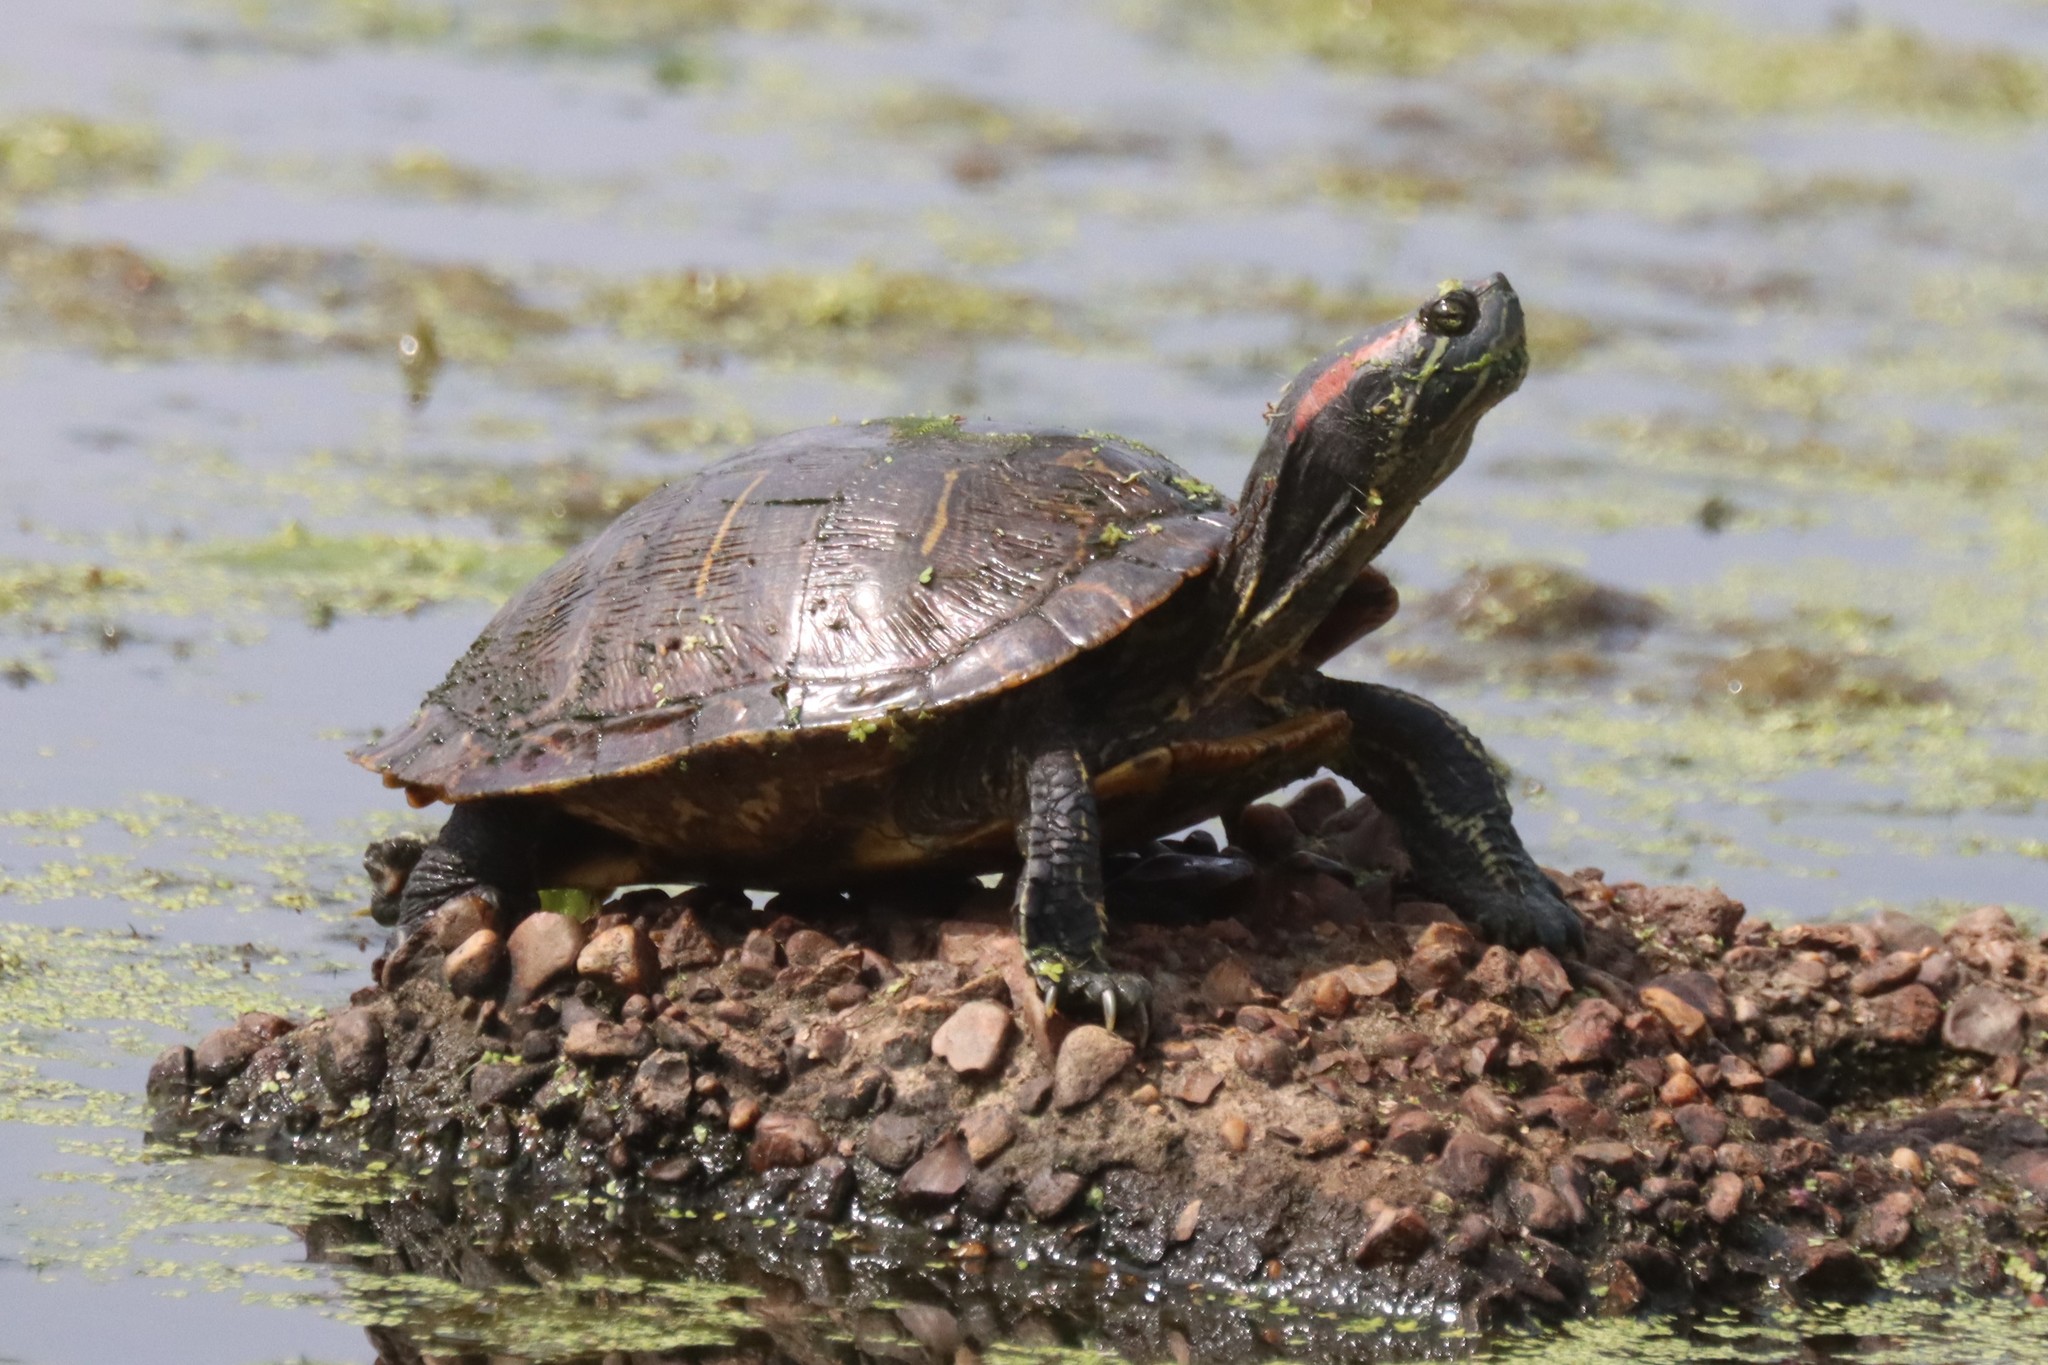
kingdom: Animalia
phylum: Chordata
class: Testudines
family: Emydidae
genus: Trachemys
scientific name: Trachemys scripta
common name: Slider
